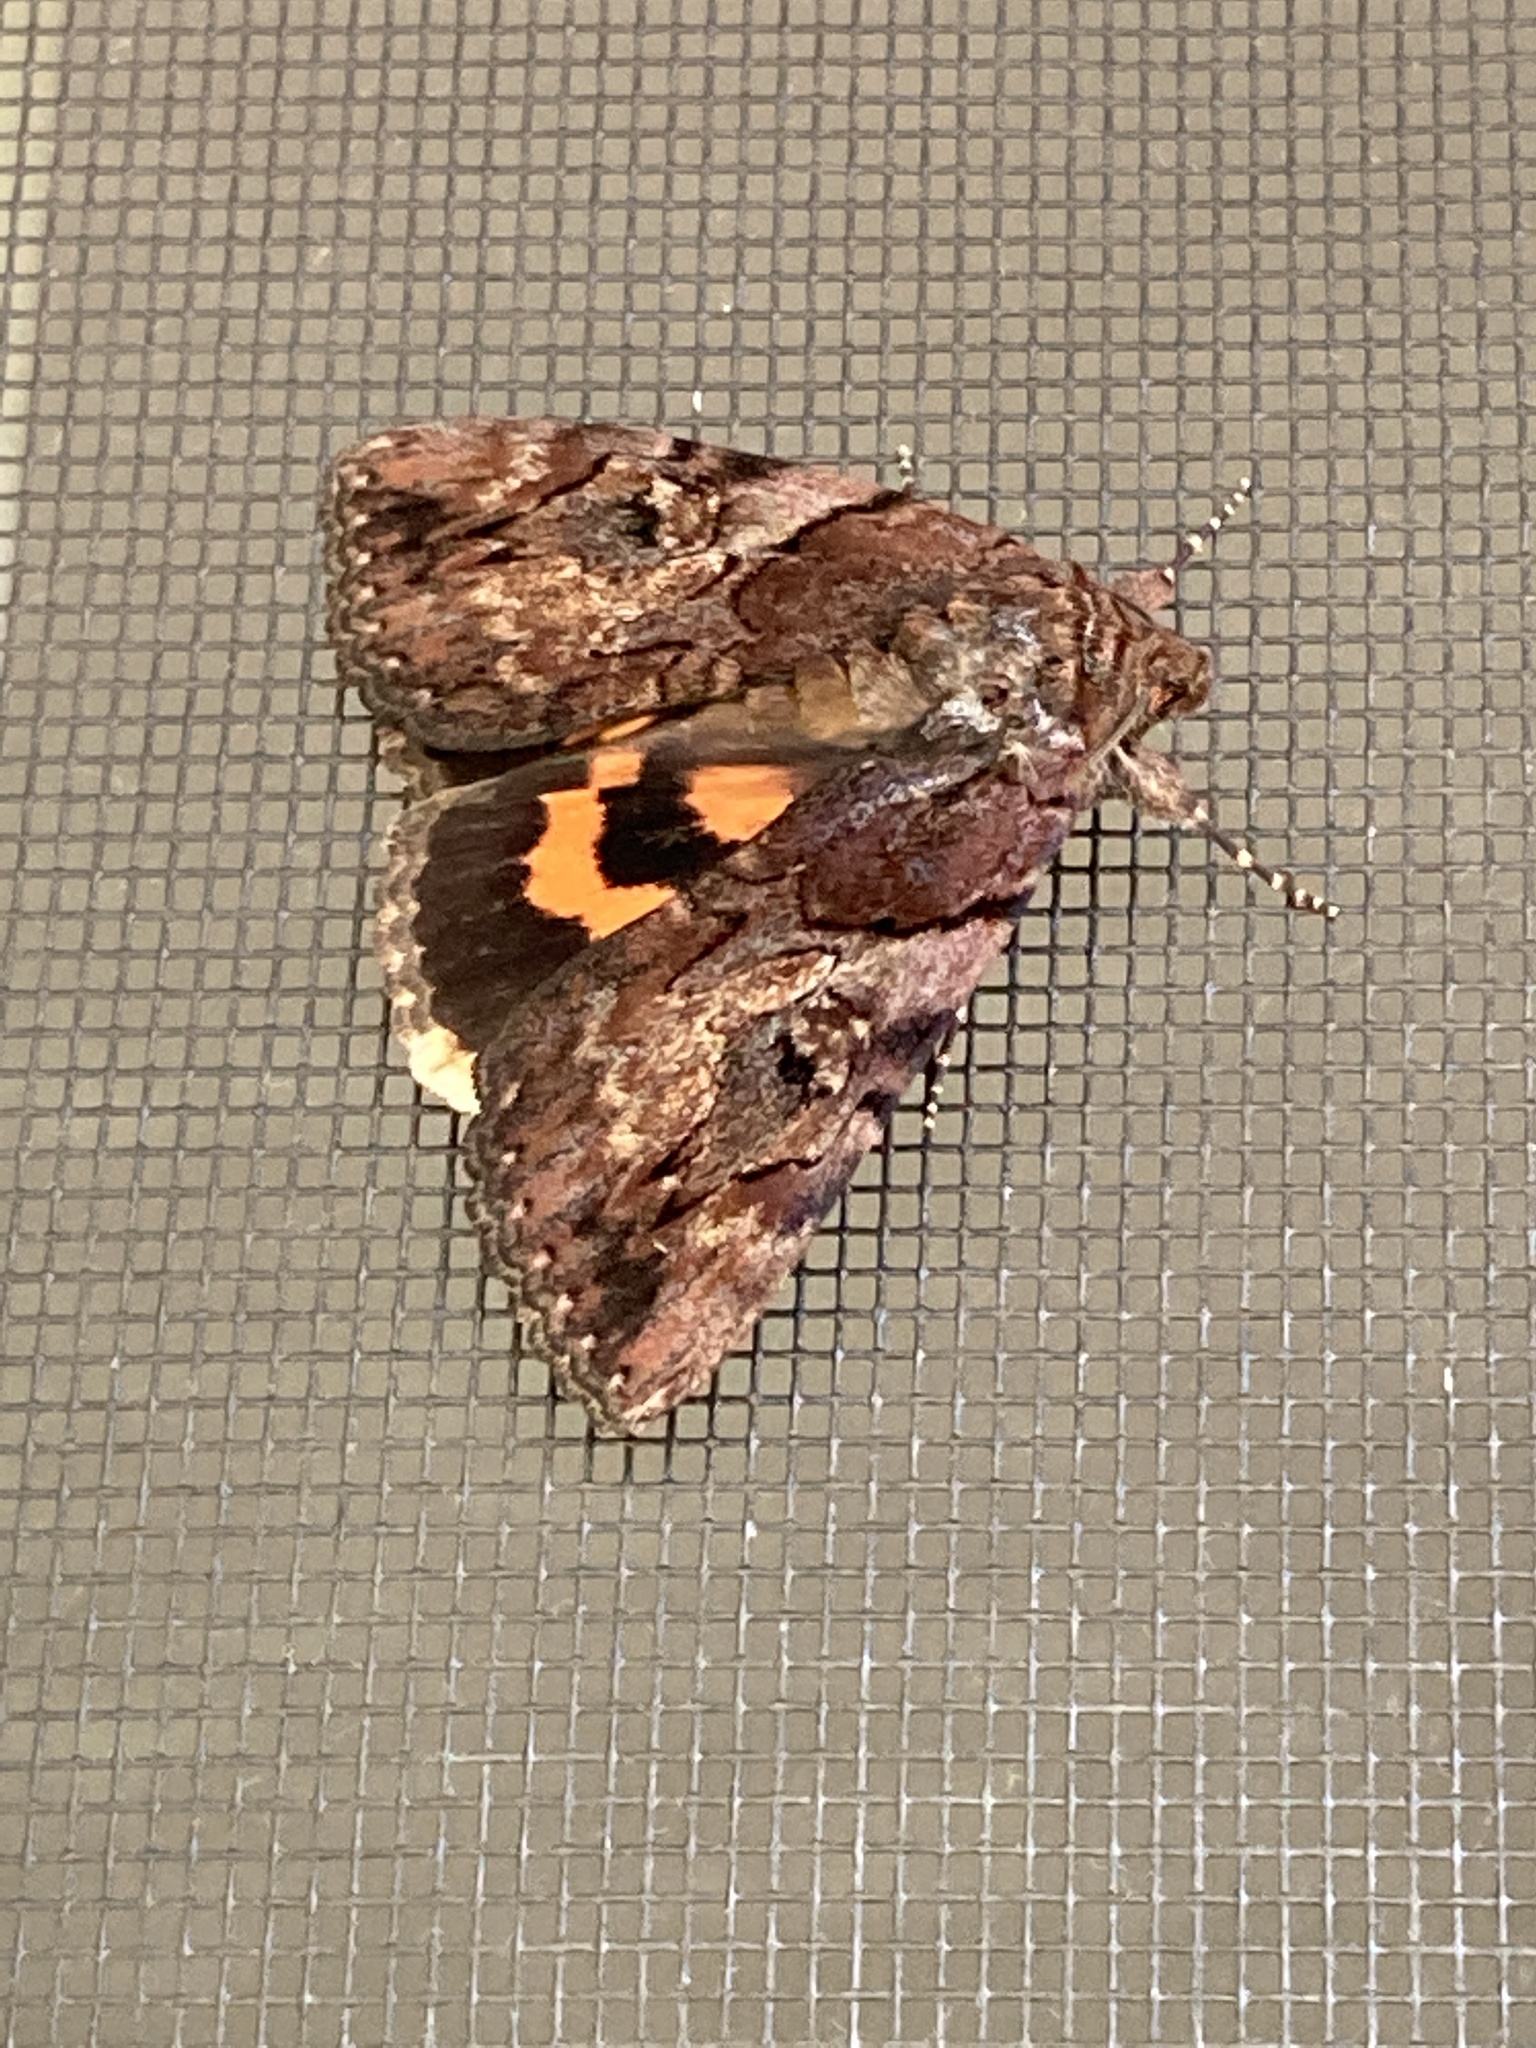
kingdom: Animalia
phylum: Arthropoda
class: Insecta
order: Lepidoptera
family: Erebidae
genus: Catocala
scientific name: Catocala muliercula
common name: The little wife underwing
